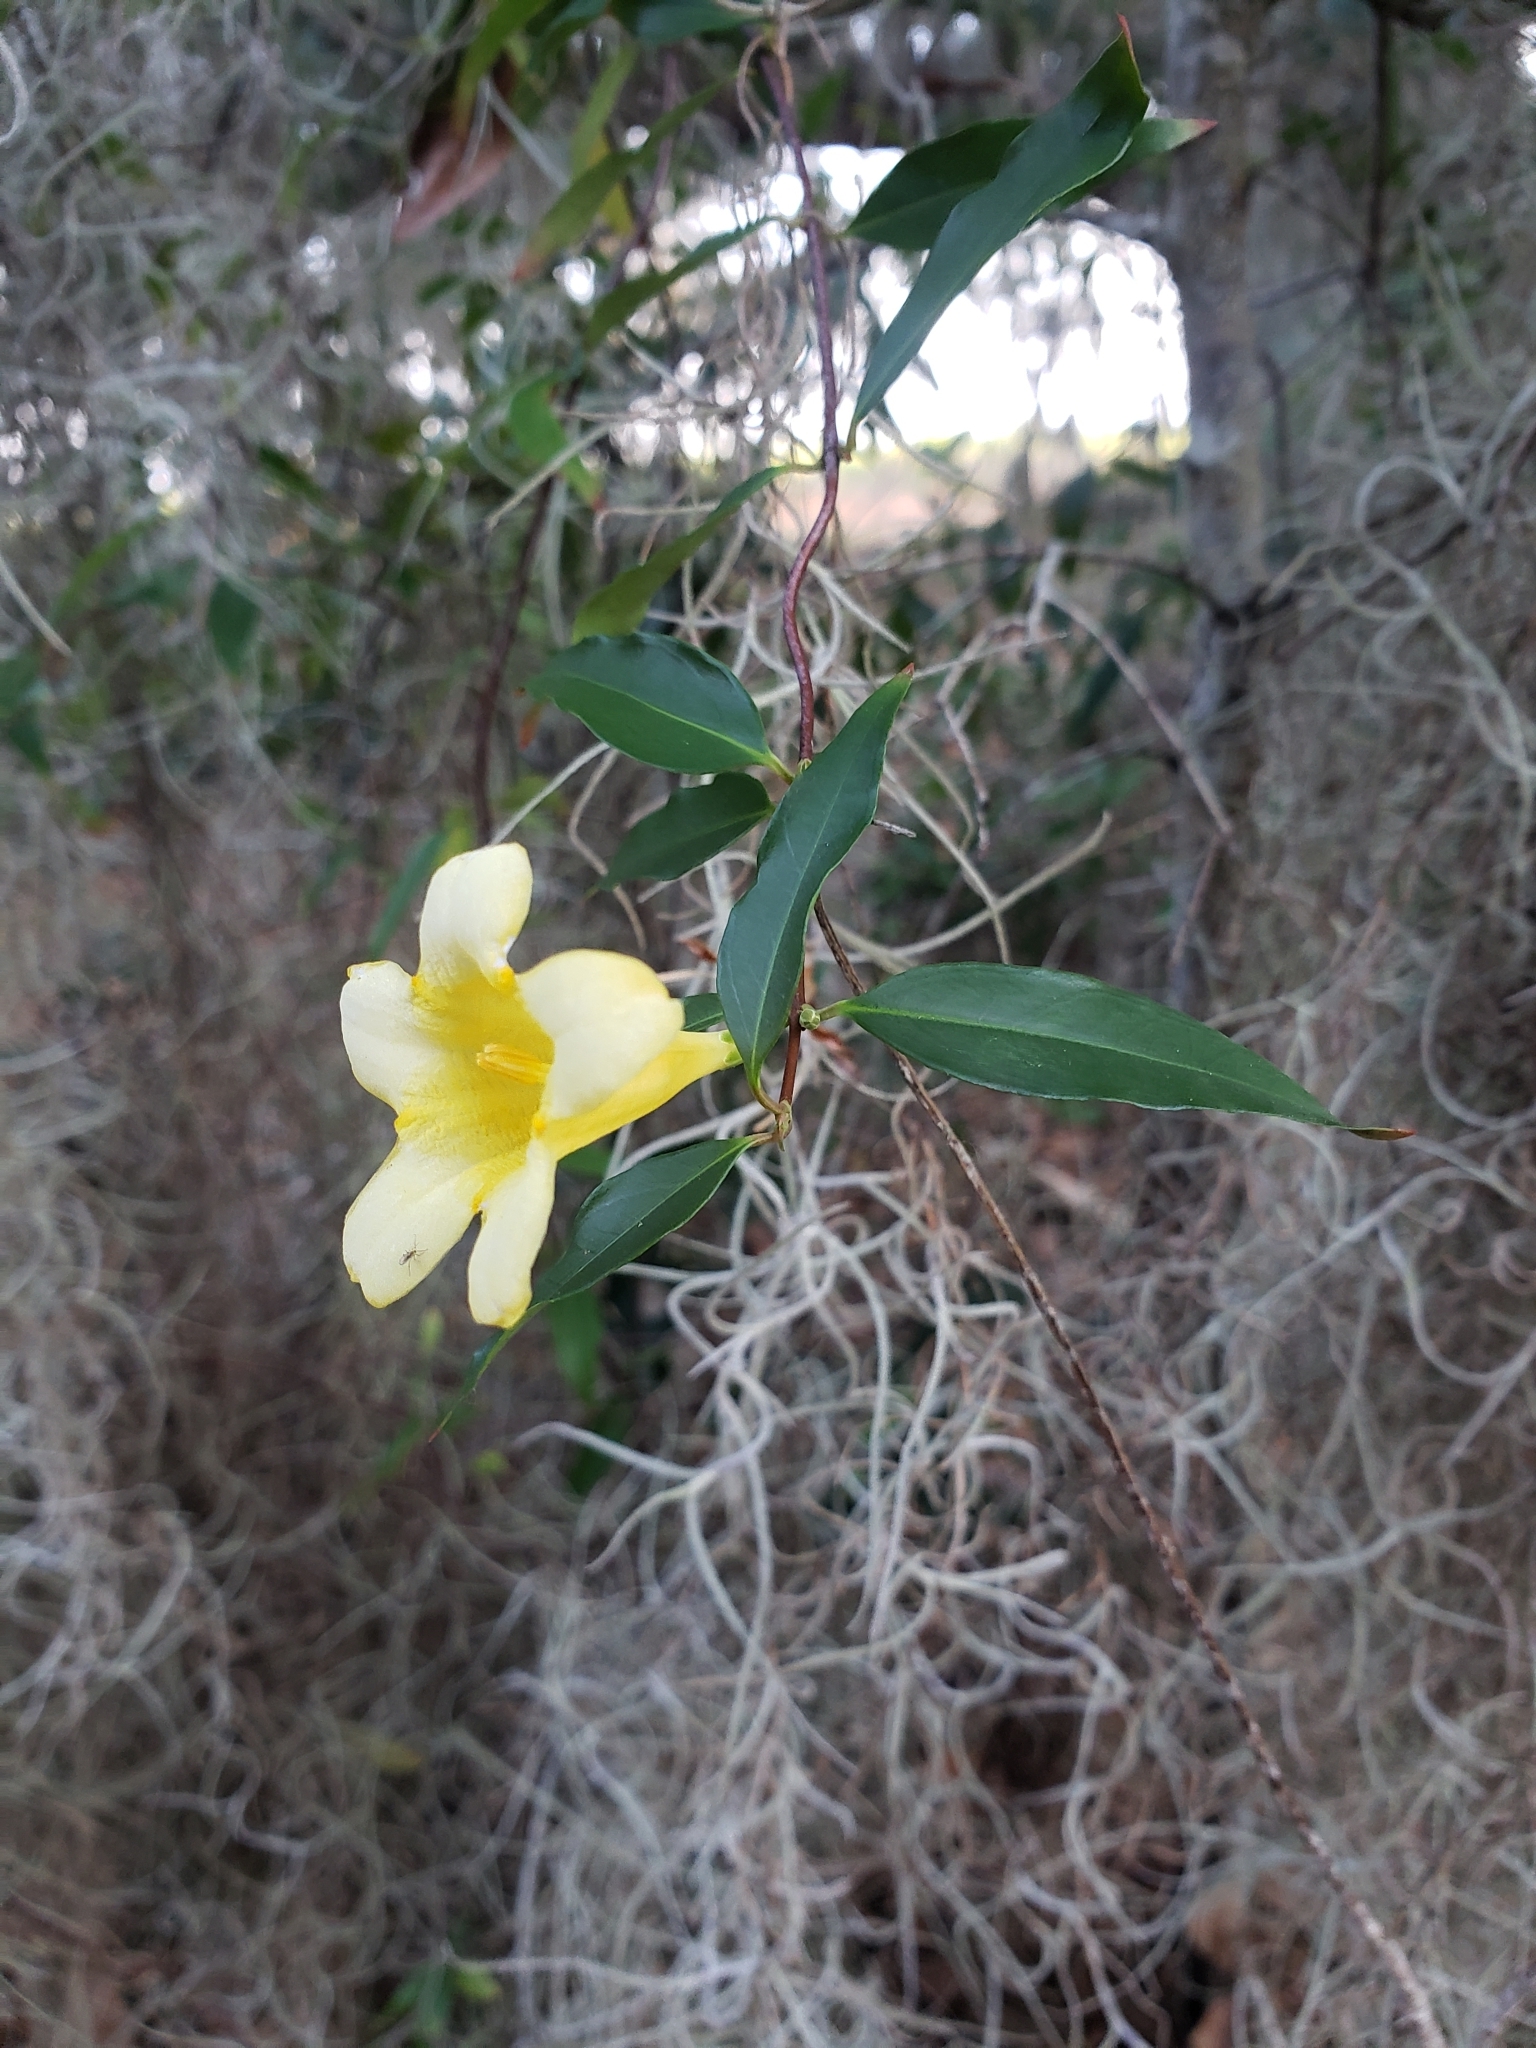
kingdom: Plantae
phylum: Tracheophyta
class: Magnoliopsida
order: Gentianales
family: Gelsemiaceae
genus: Gelsemium
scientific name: Gelsemium sempervirens
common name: Carolina-jasmine
